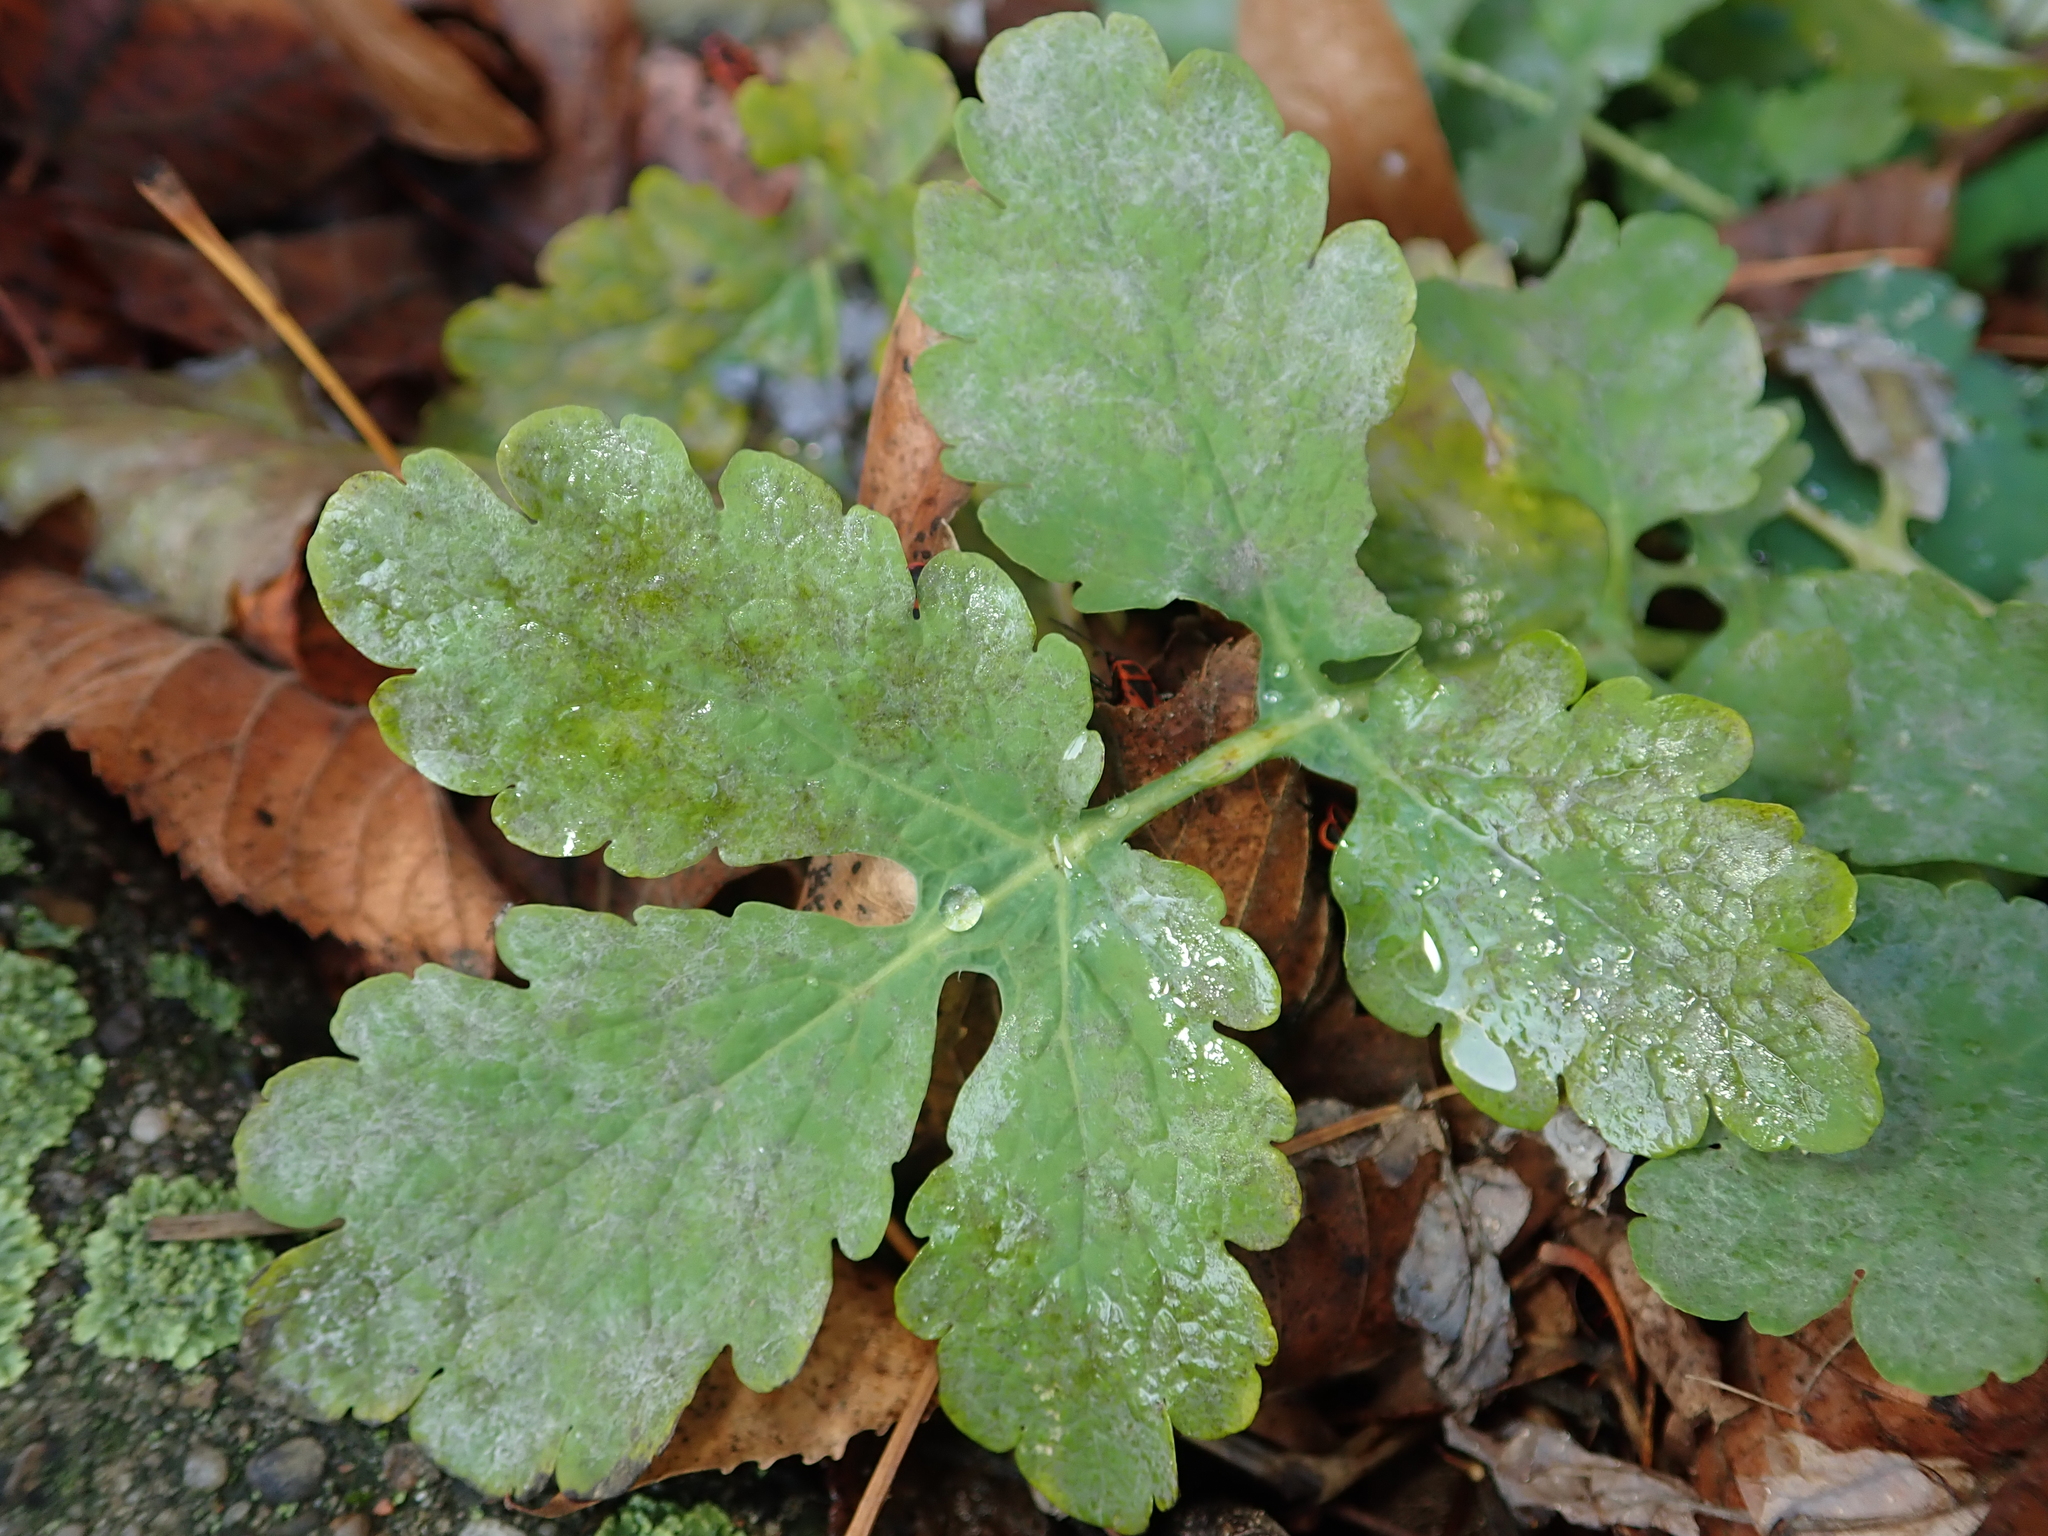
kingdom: Plantae
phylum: Tracheophyta
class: Magnoliopsida
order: Ranunculales
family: Papaveraceae
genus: Chelidonium
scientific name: Chelidonium majus
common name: Greater celandine
